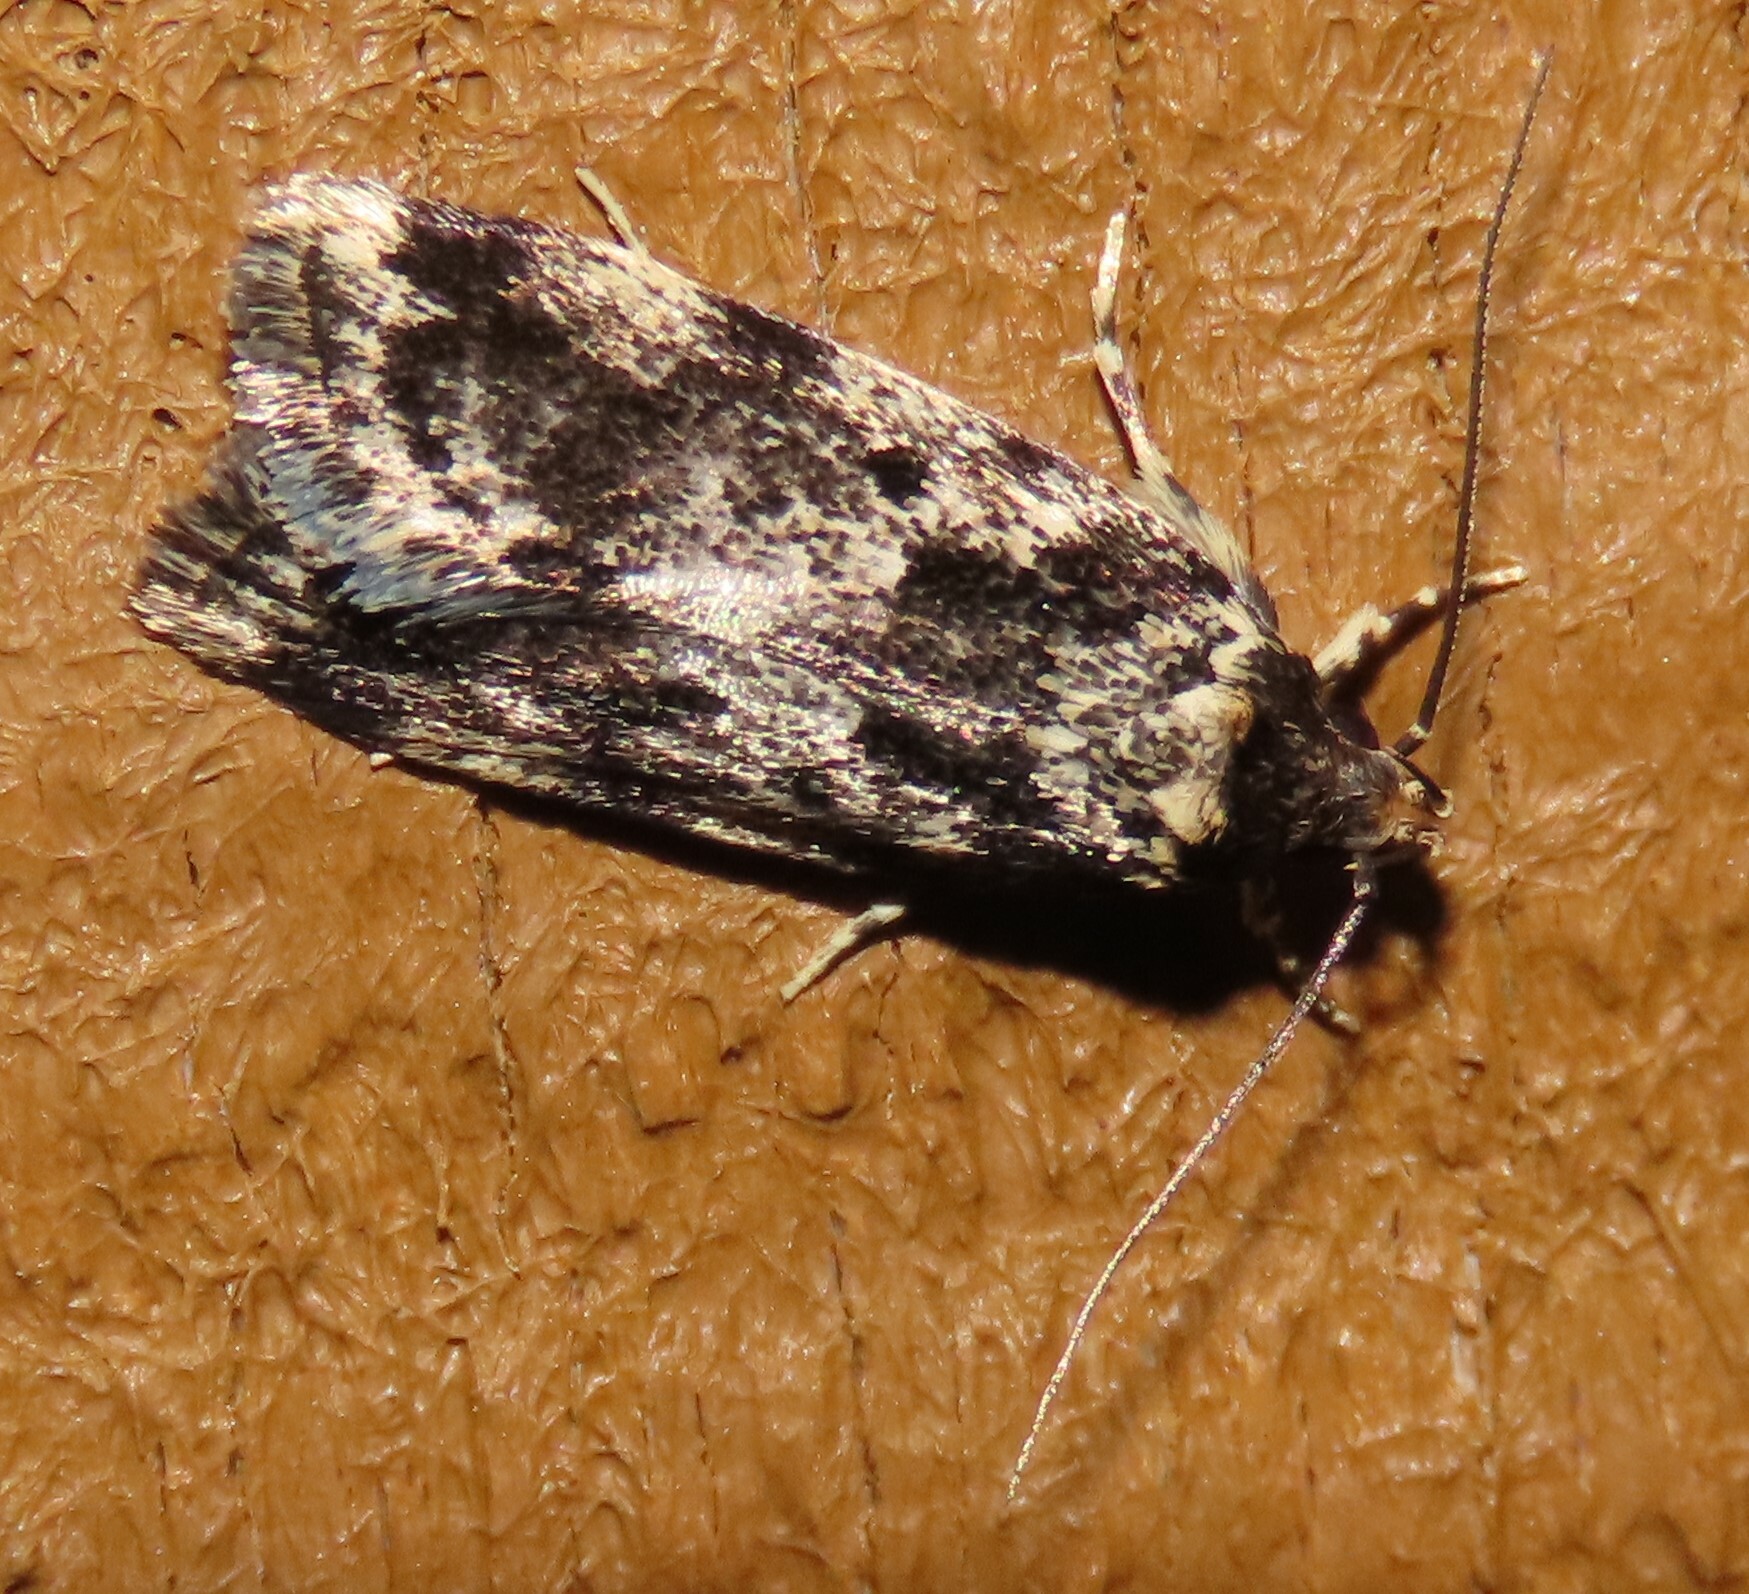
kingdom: Animalia
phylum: Arthropoda
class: Insecta
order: Lepidoptera
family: Oecophoridae
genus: Barea
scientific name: Barea confusella
